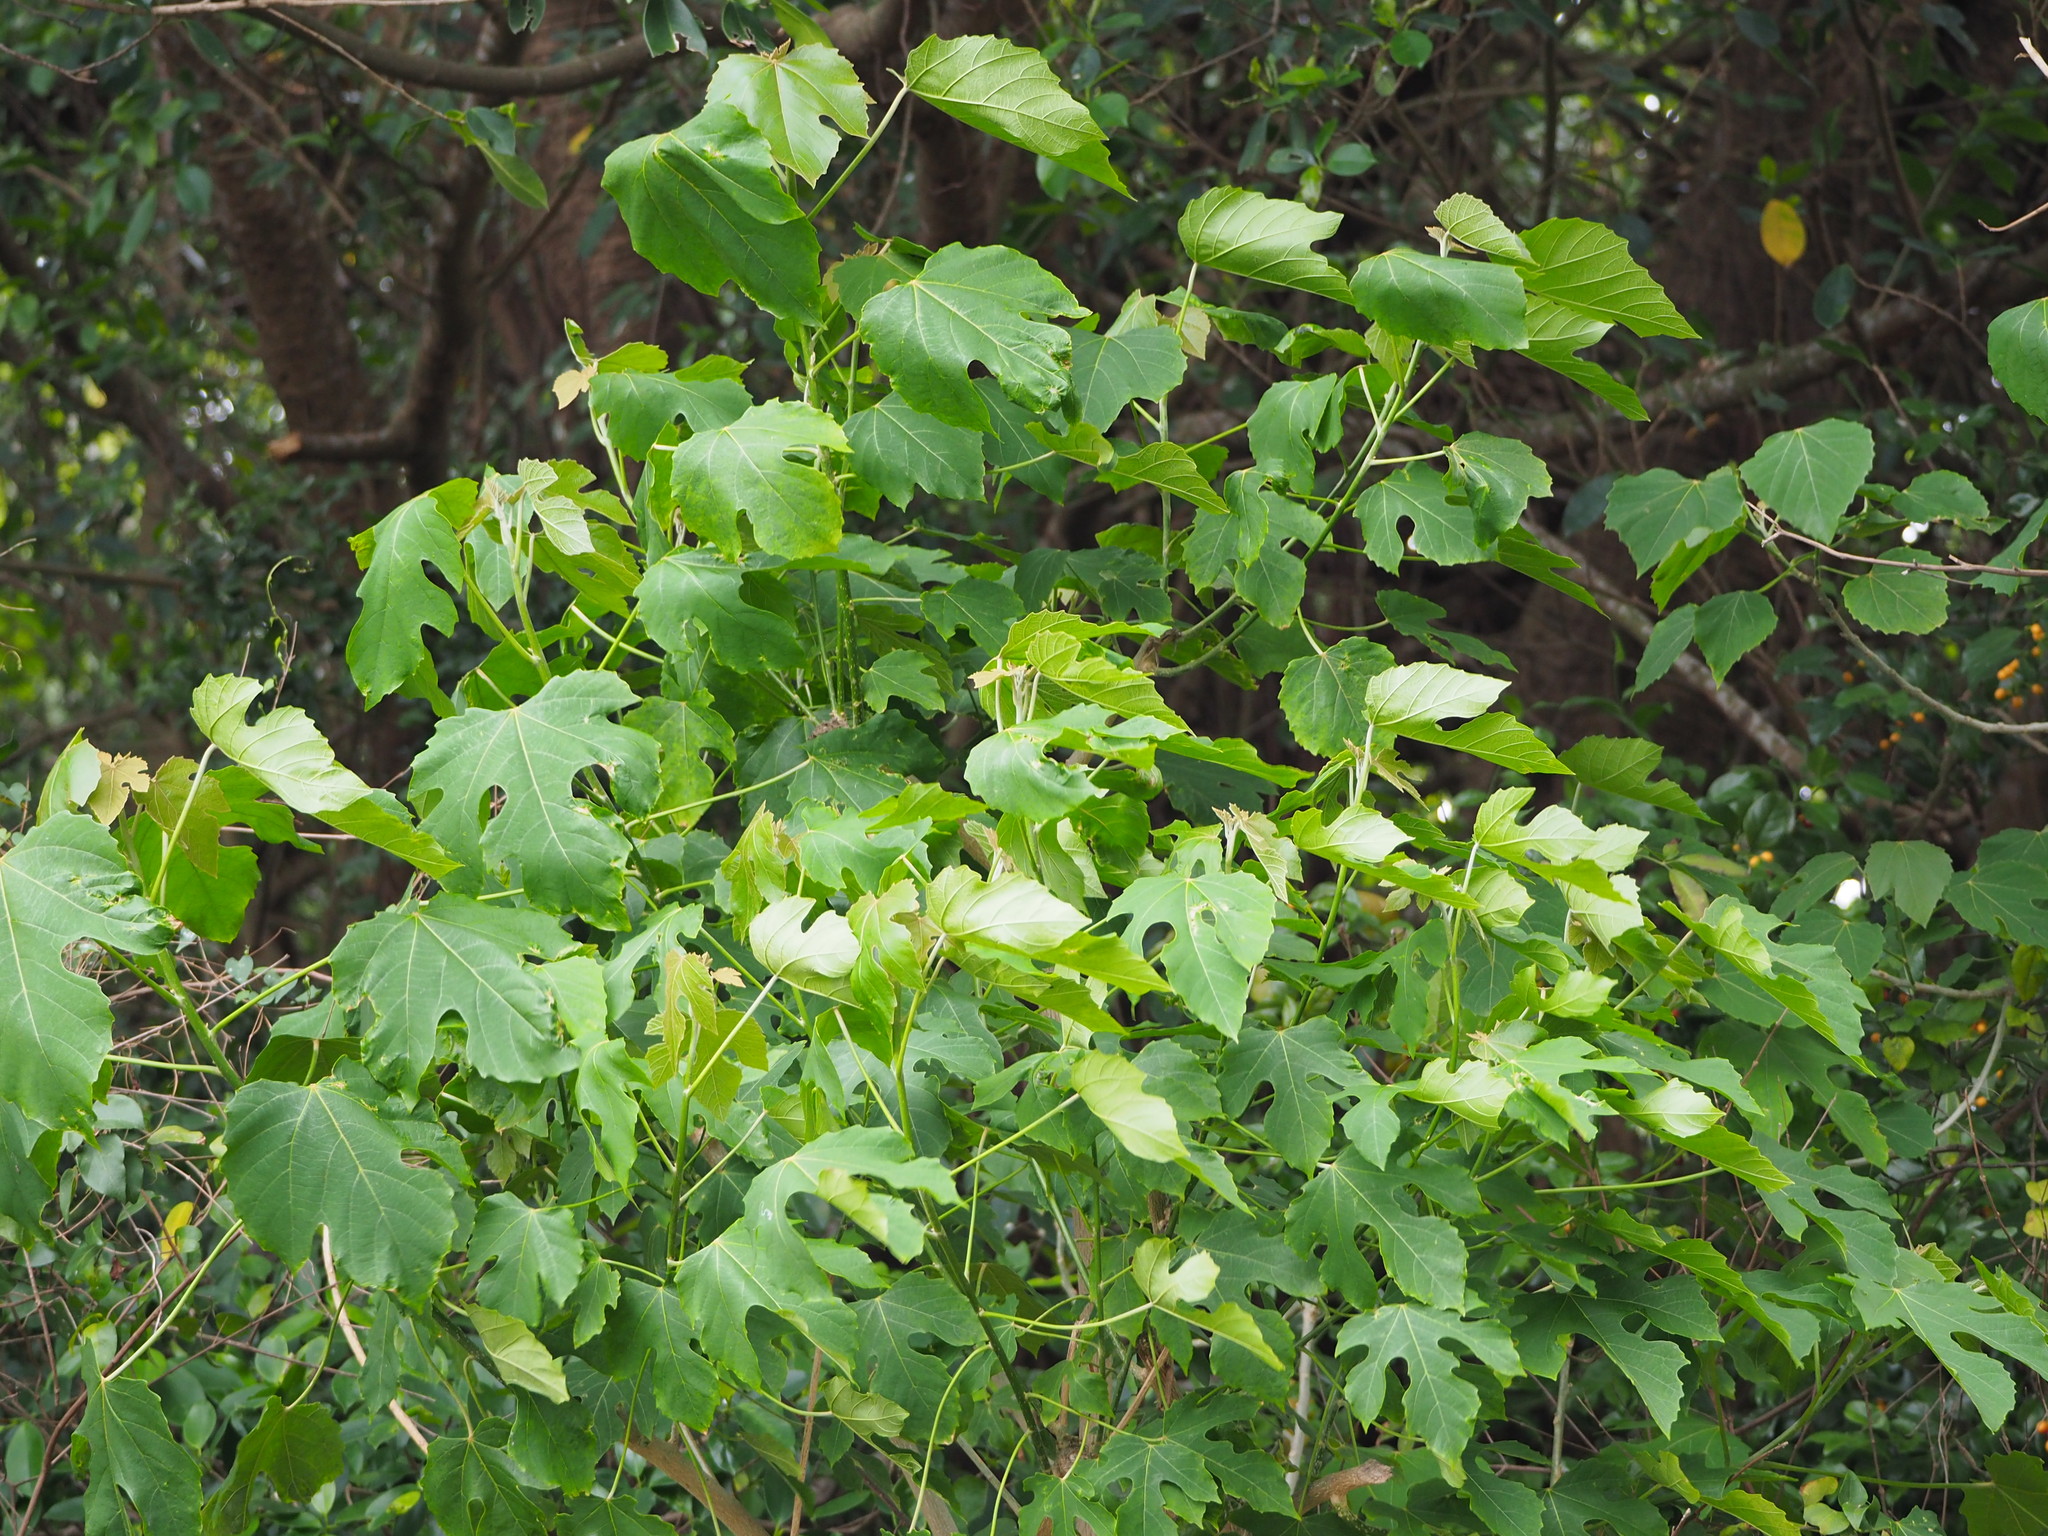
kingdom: Plantae
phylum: Tracheophyta
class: Magnoliopsida
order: Malpighiales
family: Euphorbiaceae
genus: Melanolepis
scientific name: Melanolepis multiglandulosa
